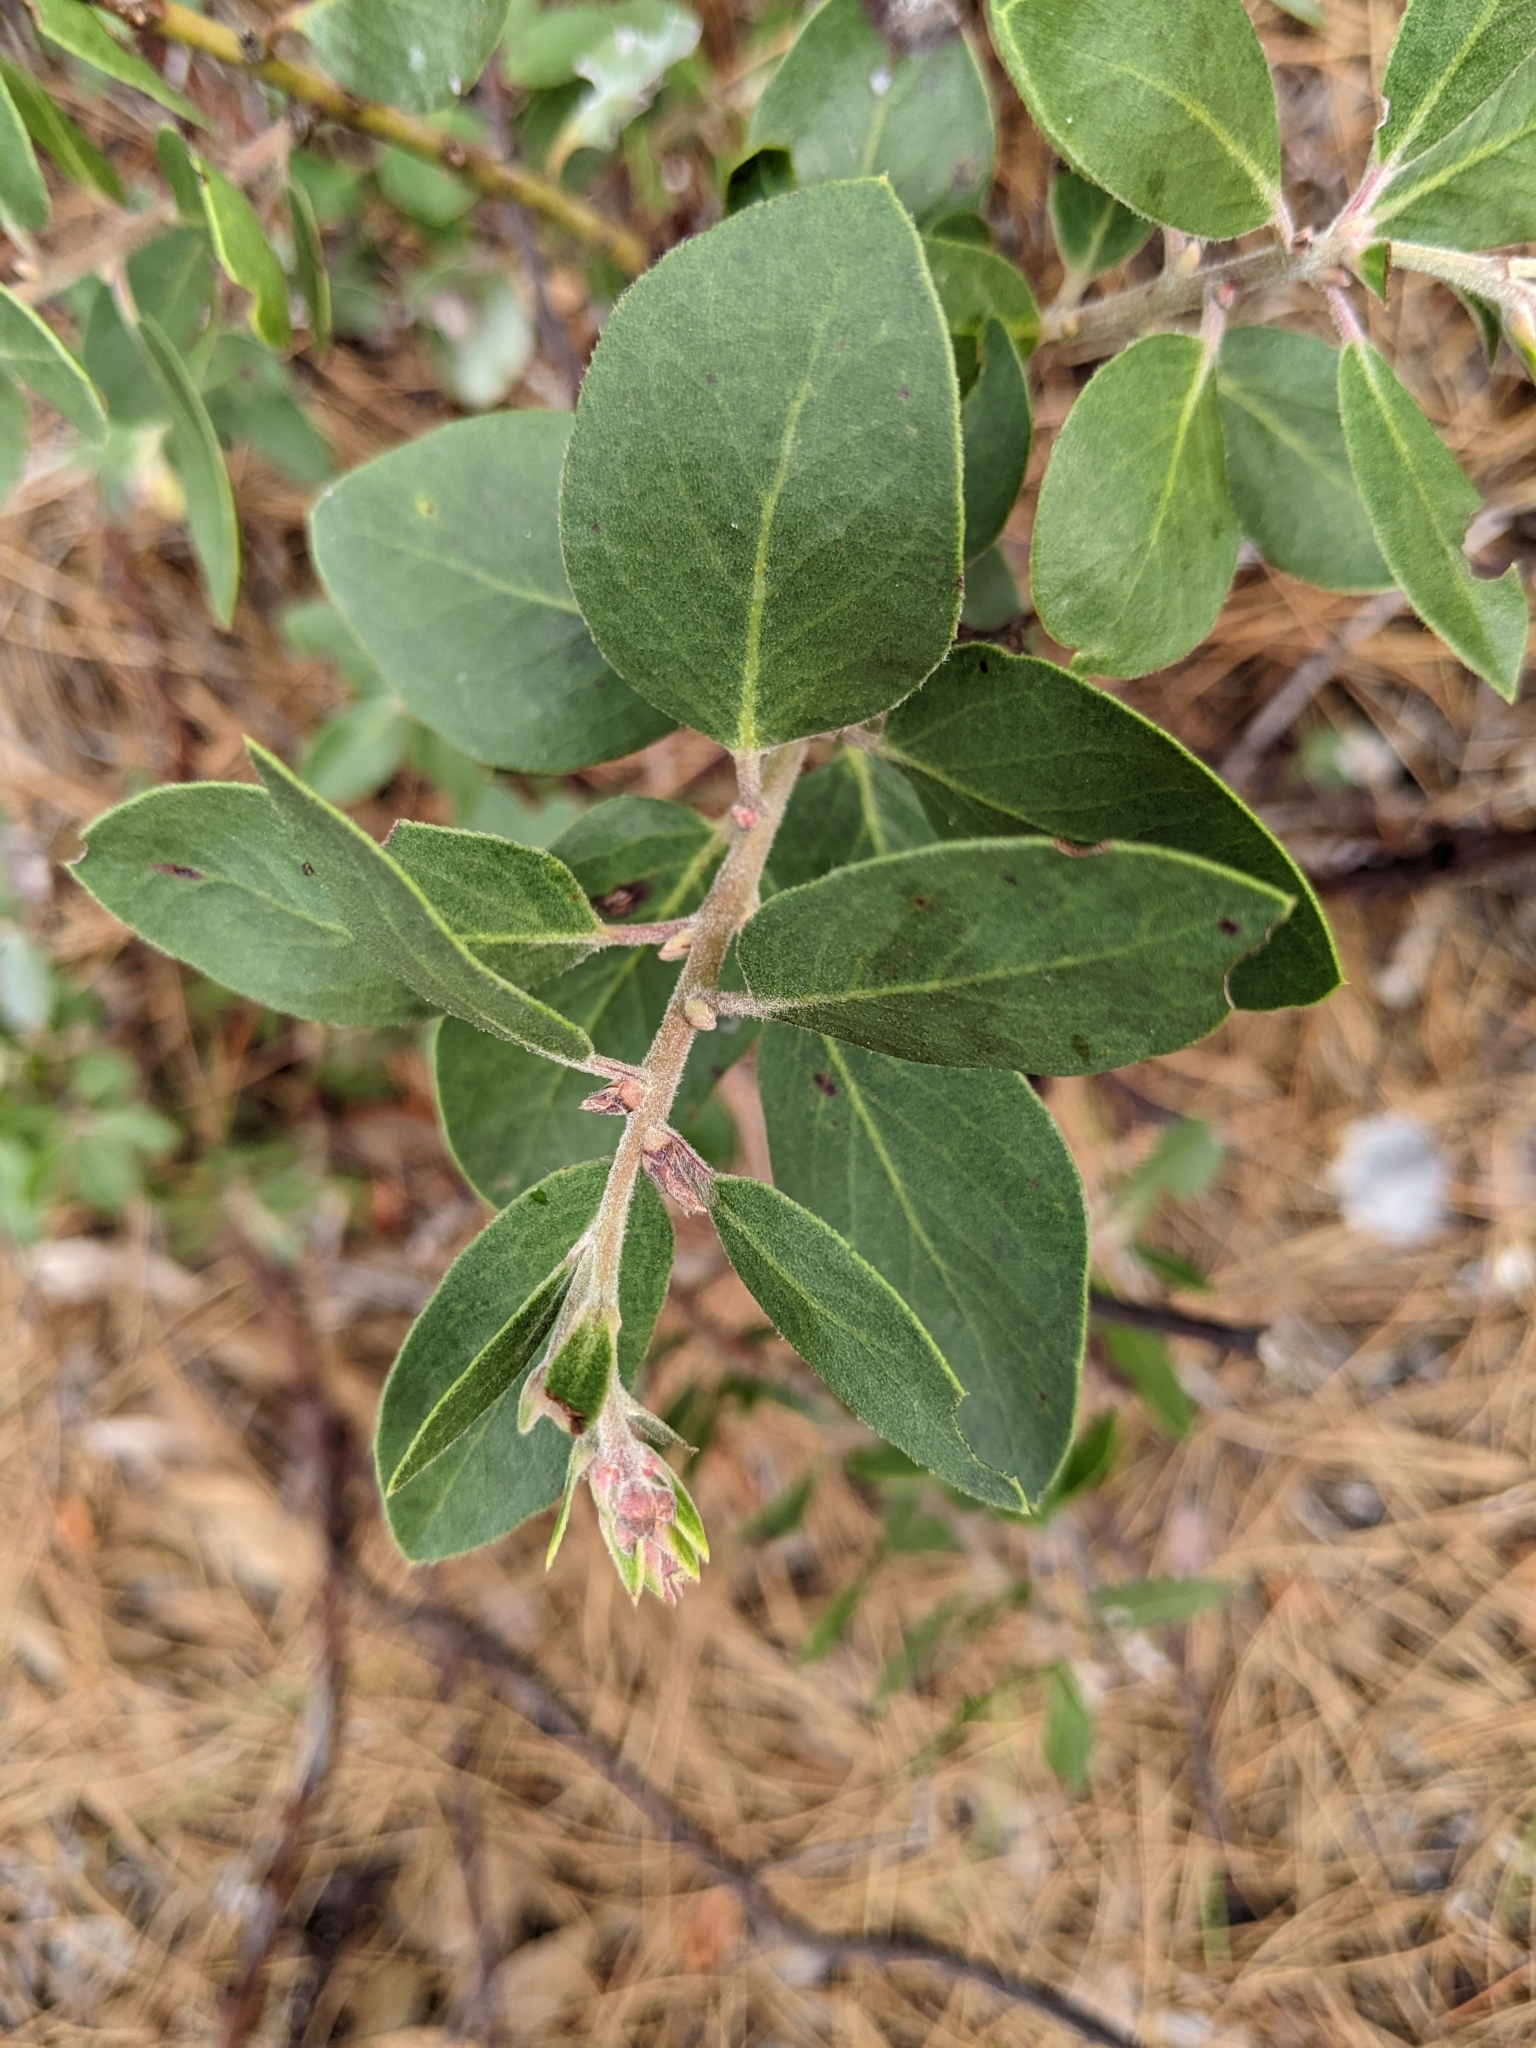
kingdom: Plantae
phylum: Tracheophyta
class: Magnoliopsida
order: Ericales
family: Ericaceae
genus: Arctostaphylos
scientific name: Arctostaphylos glandulosa
